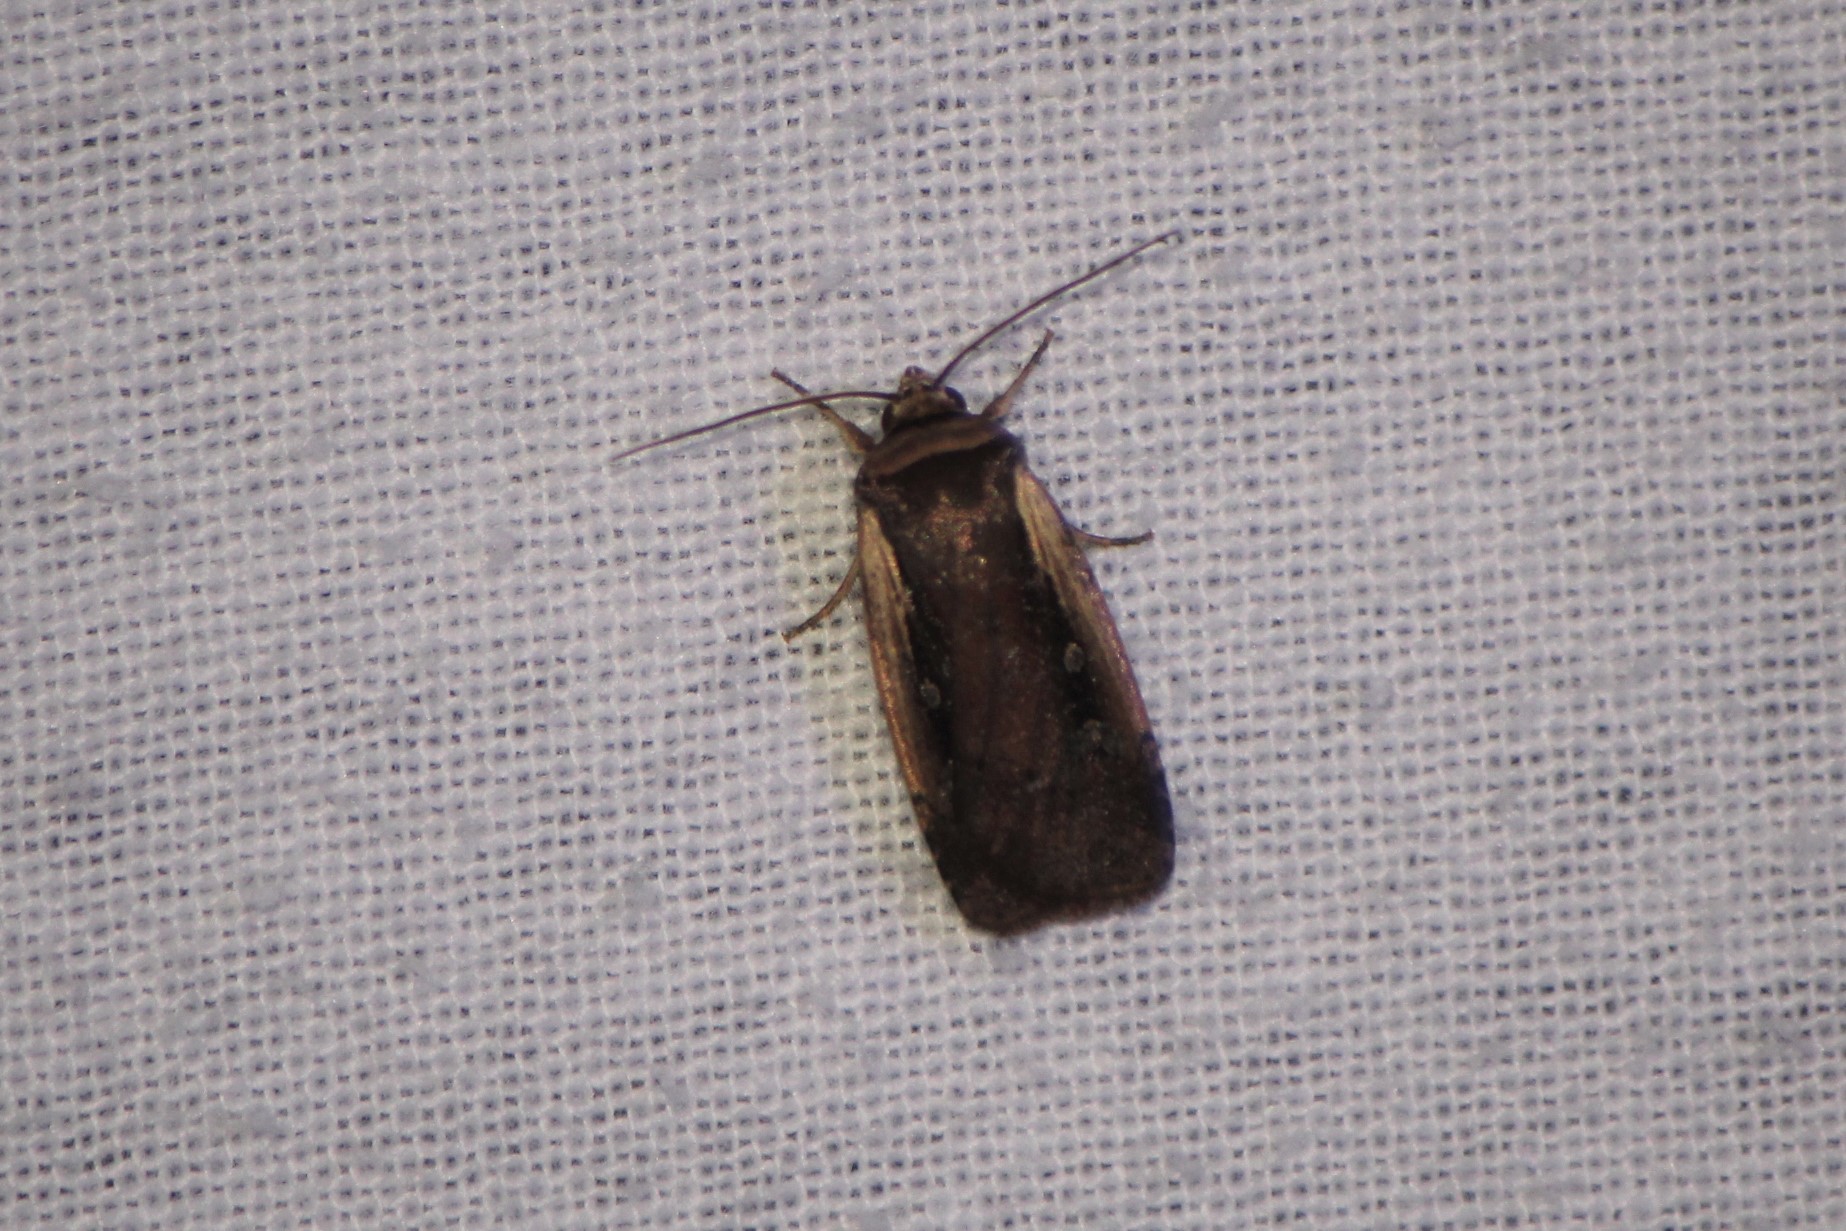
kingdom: Animalia
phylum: Arthropoda
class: Insecta
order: Lepidoptera
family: Noctuidae
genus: Ochropleura
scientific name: Ochropleura implecta
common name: Flame-shouldered dart
